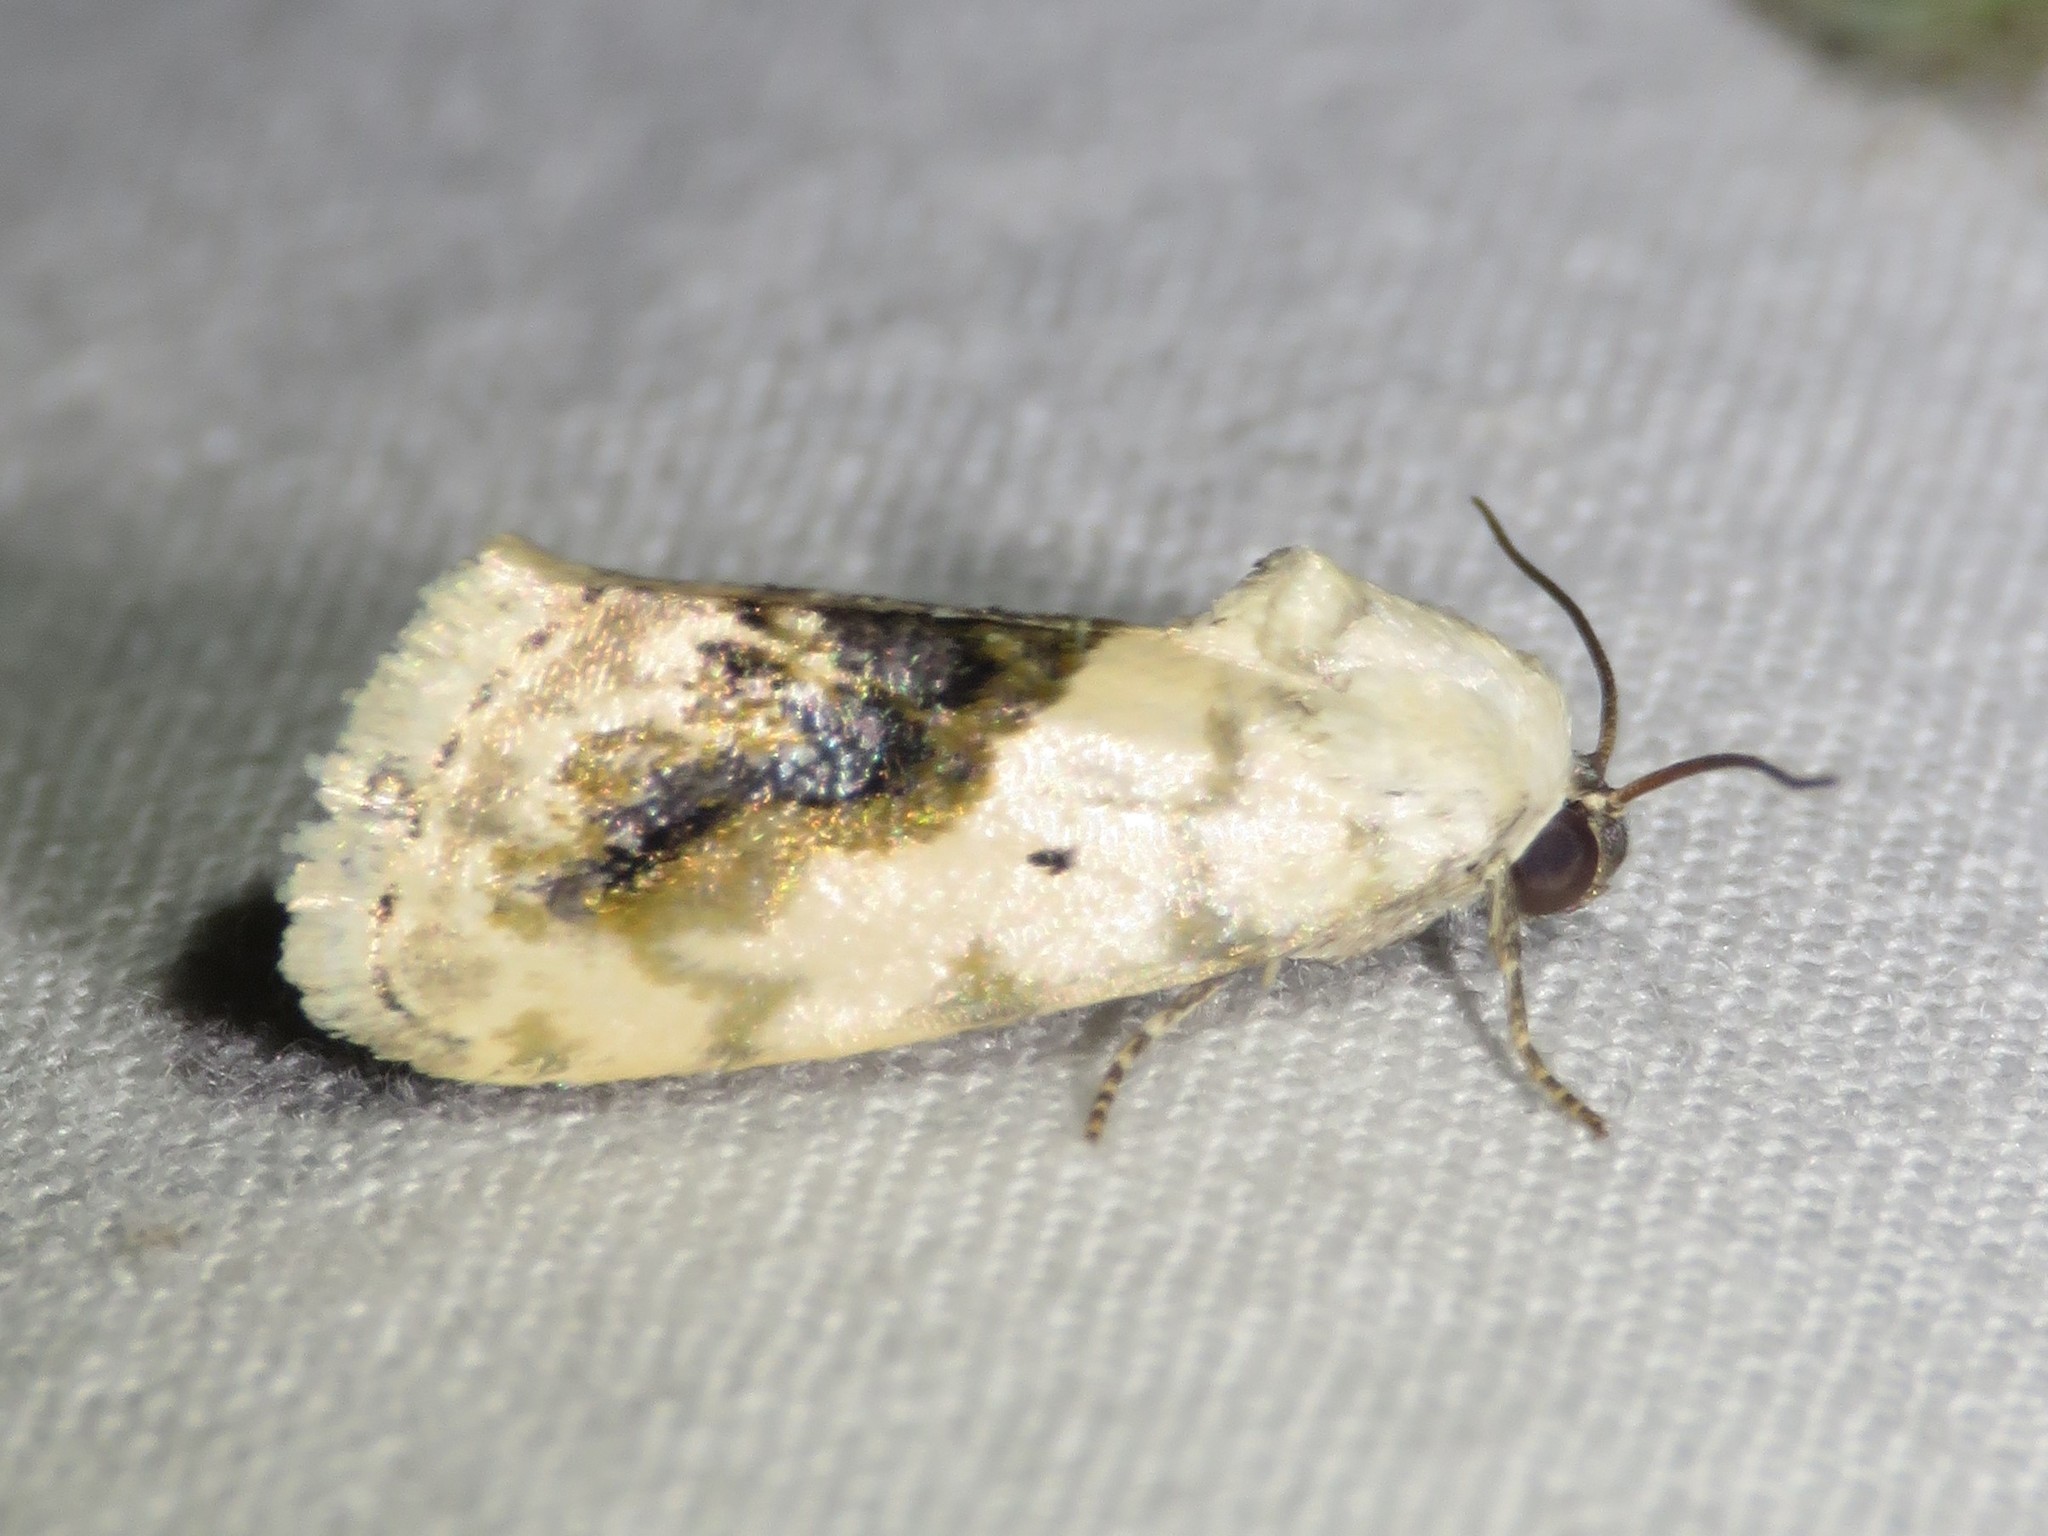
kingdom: Animalia
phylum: Arthropoda
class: Insecta
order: Lepidoptera
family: Noctuidae
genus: Acontia
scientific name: Acontia erastrioides
